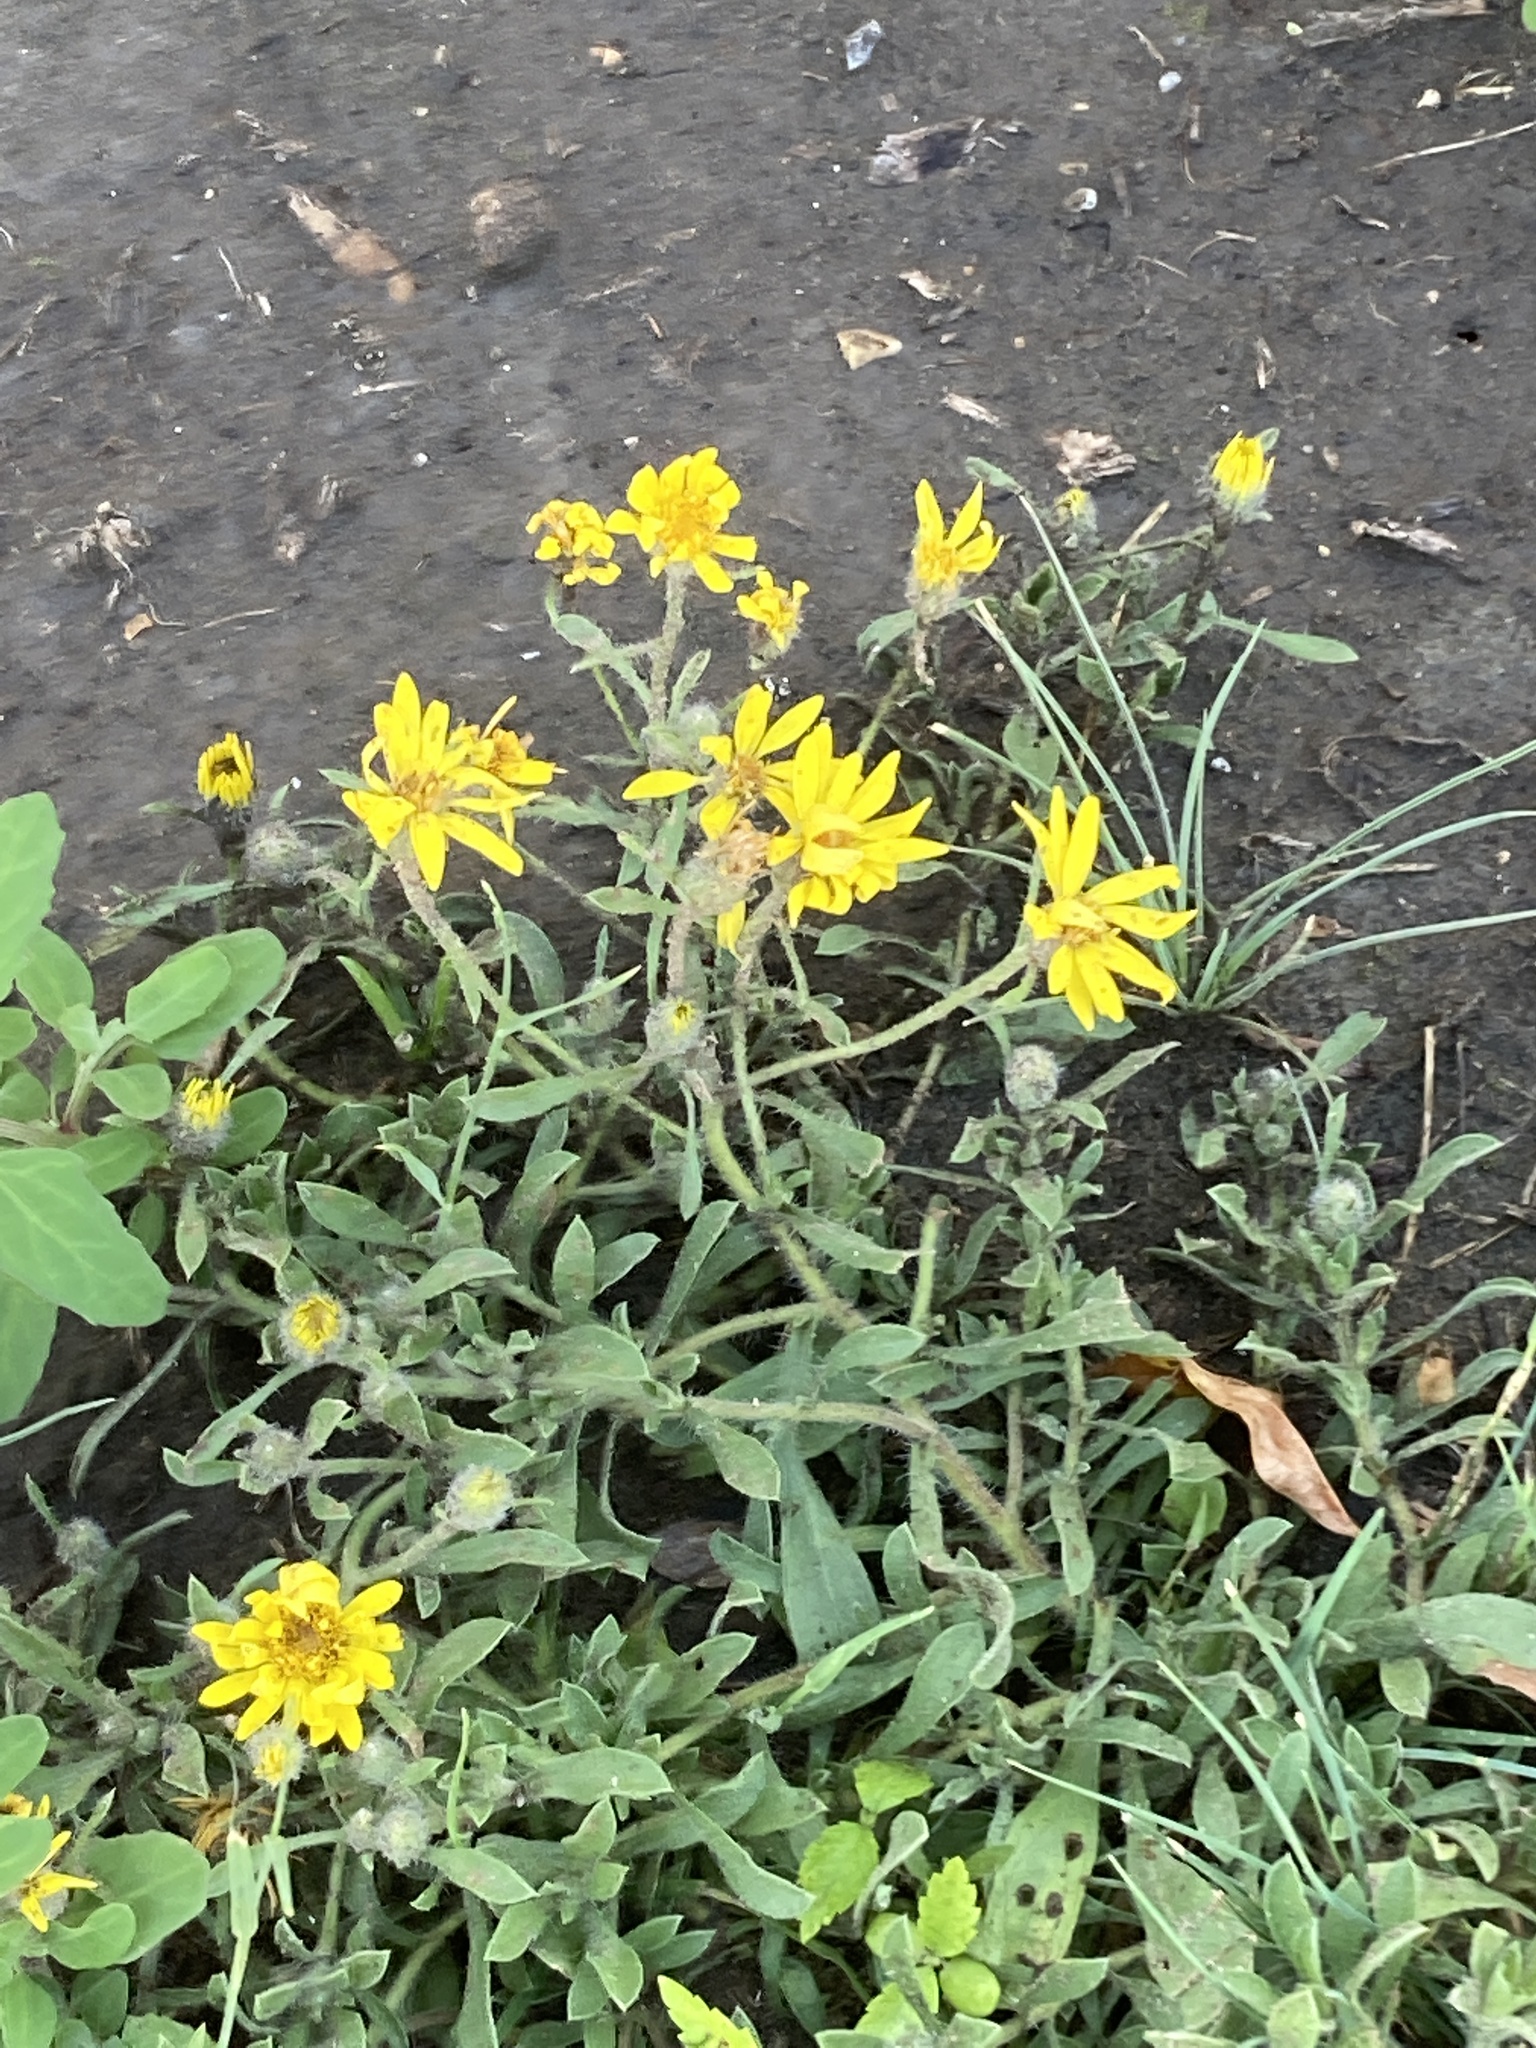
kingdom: Plantae
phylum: Tracheophyta
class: Magnoliopsida
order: Asterales
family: Asteraceae
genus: Heterotheca
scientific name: Heterotheca villosa
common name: Hairy false goldenaster
